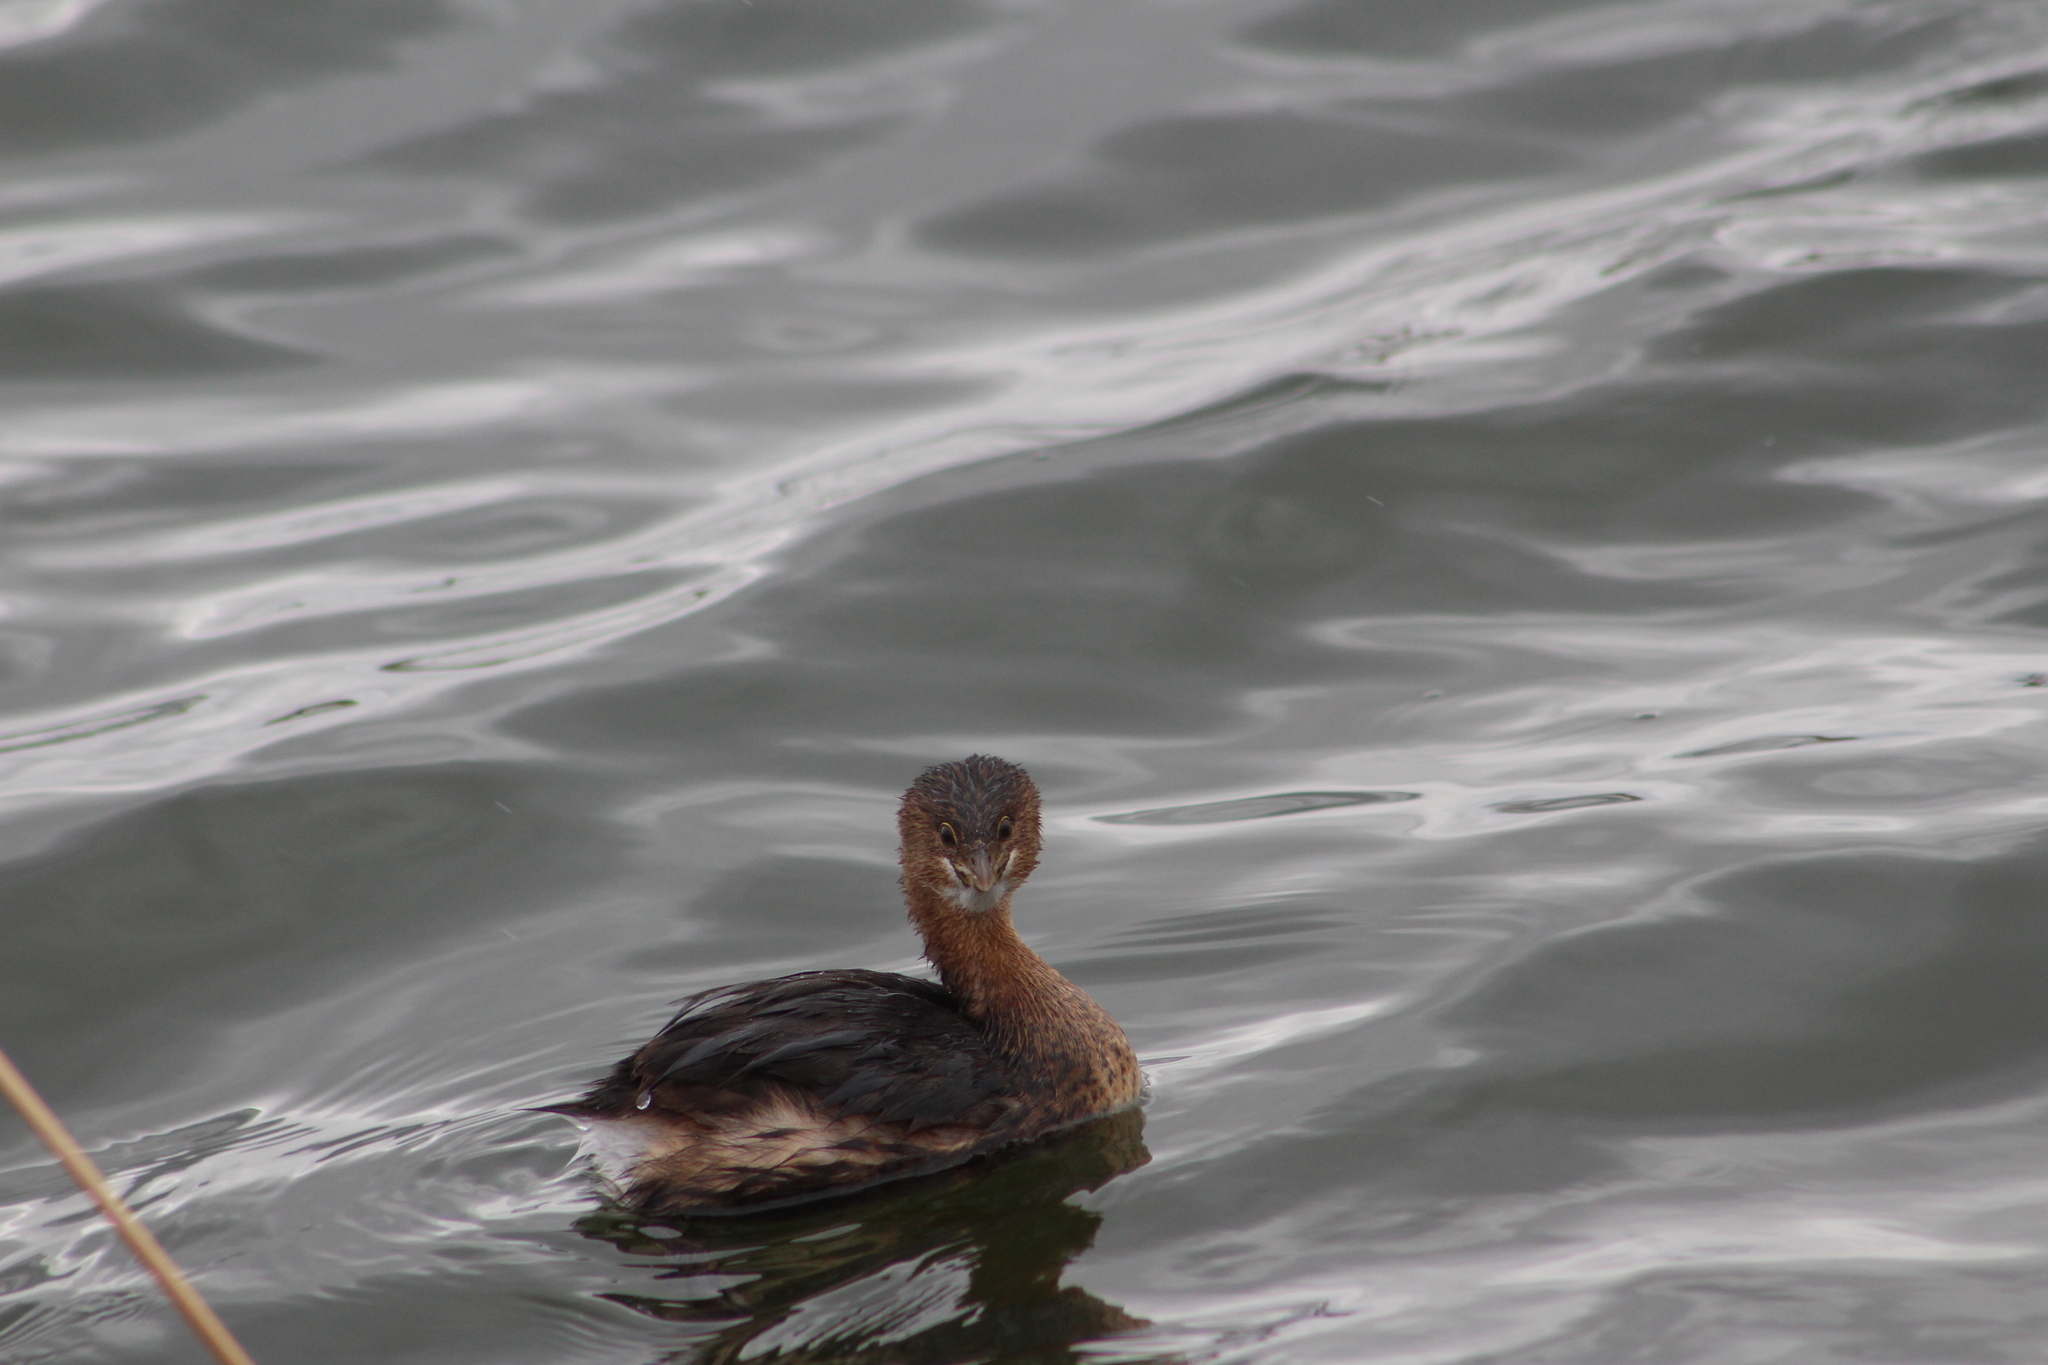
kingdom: Animalia
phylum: Chordata
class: Aves
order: Podicipediformes
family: Podicipedidae
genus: Podilymbus
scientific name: Podilymbus podiceps
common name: Pied-billed grebe
